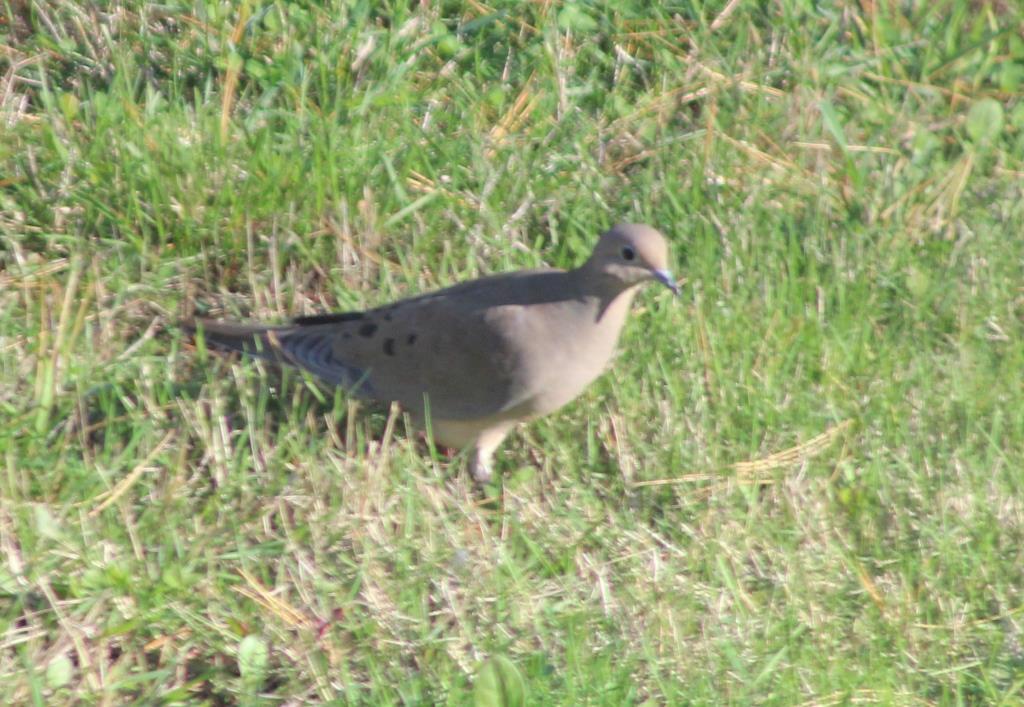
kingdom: Animalia
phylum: Chordata
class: Aves
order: Columbiformes
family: Columbidae
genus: Zenaida
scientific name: Zenaida macroura
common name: Mourning dove
